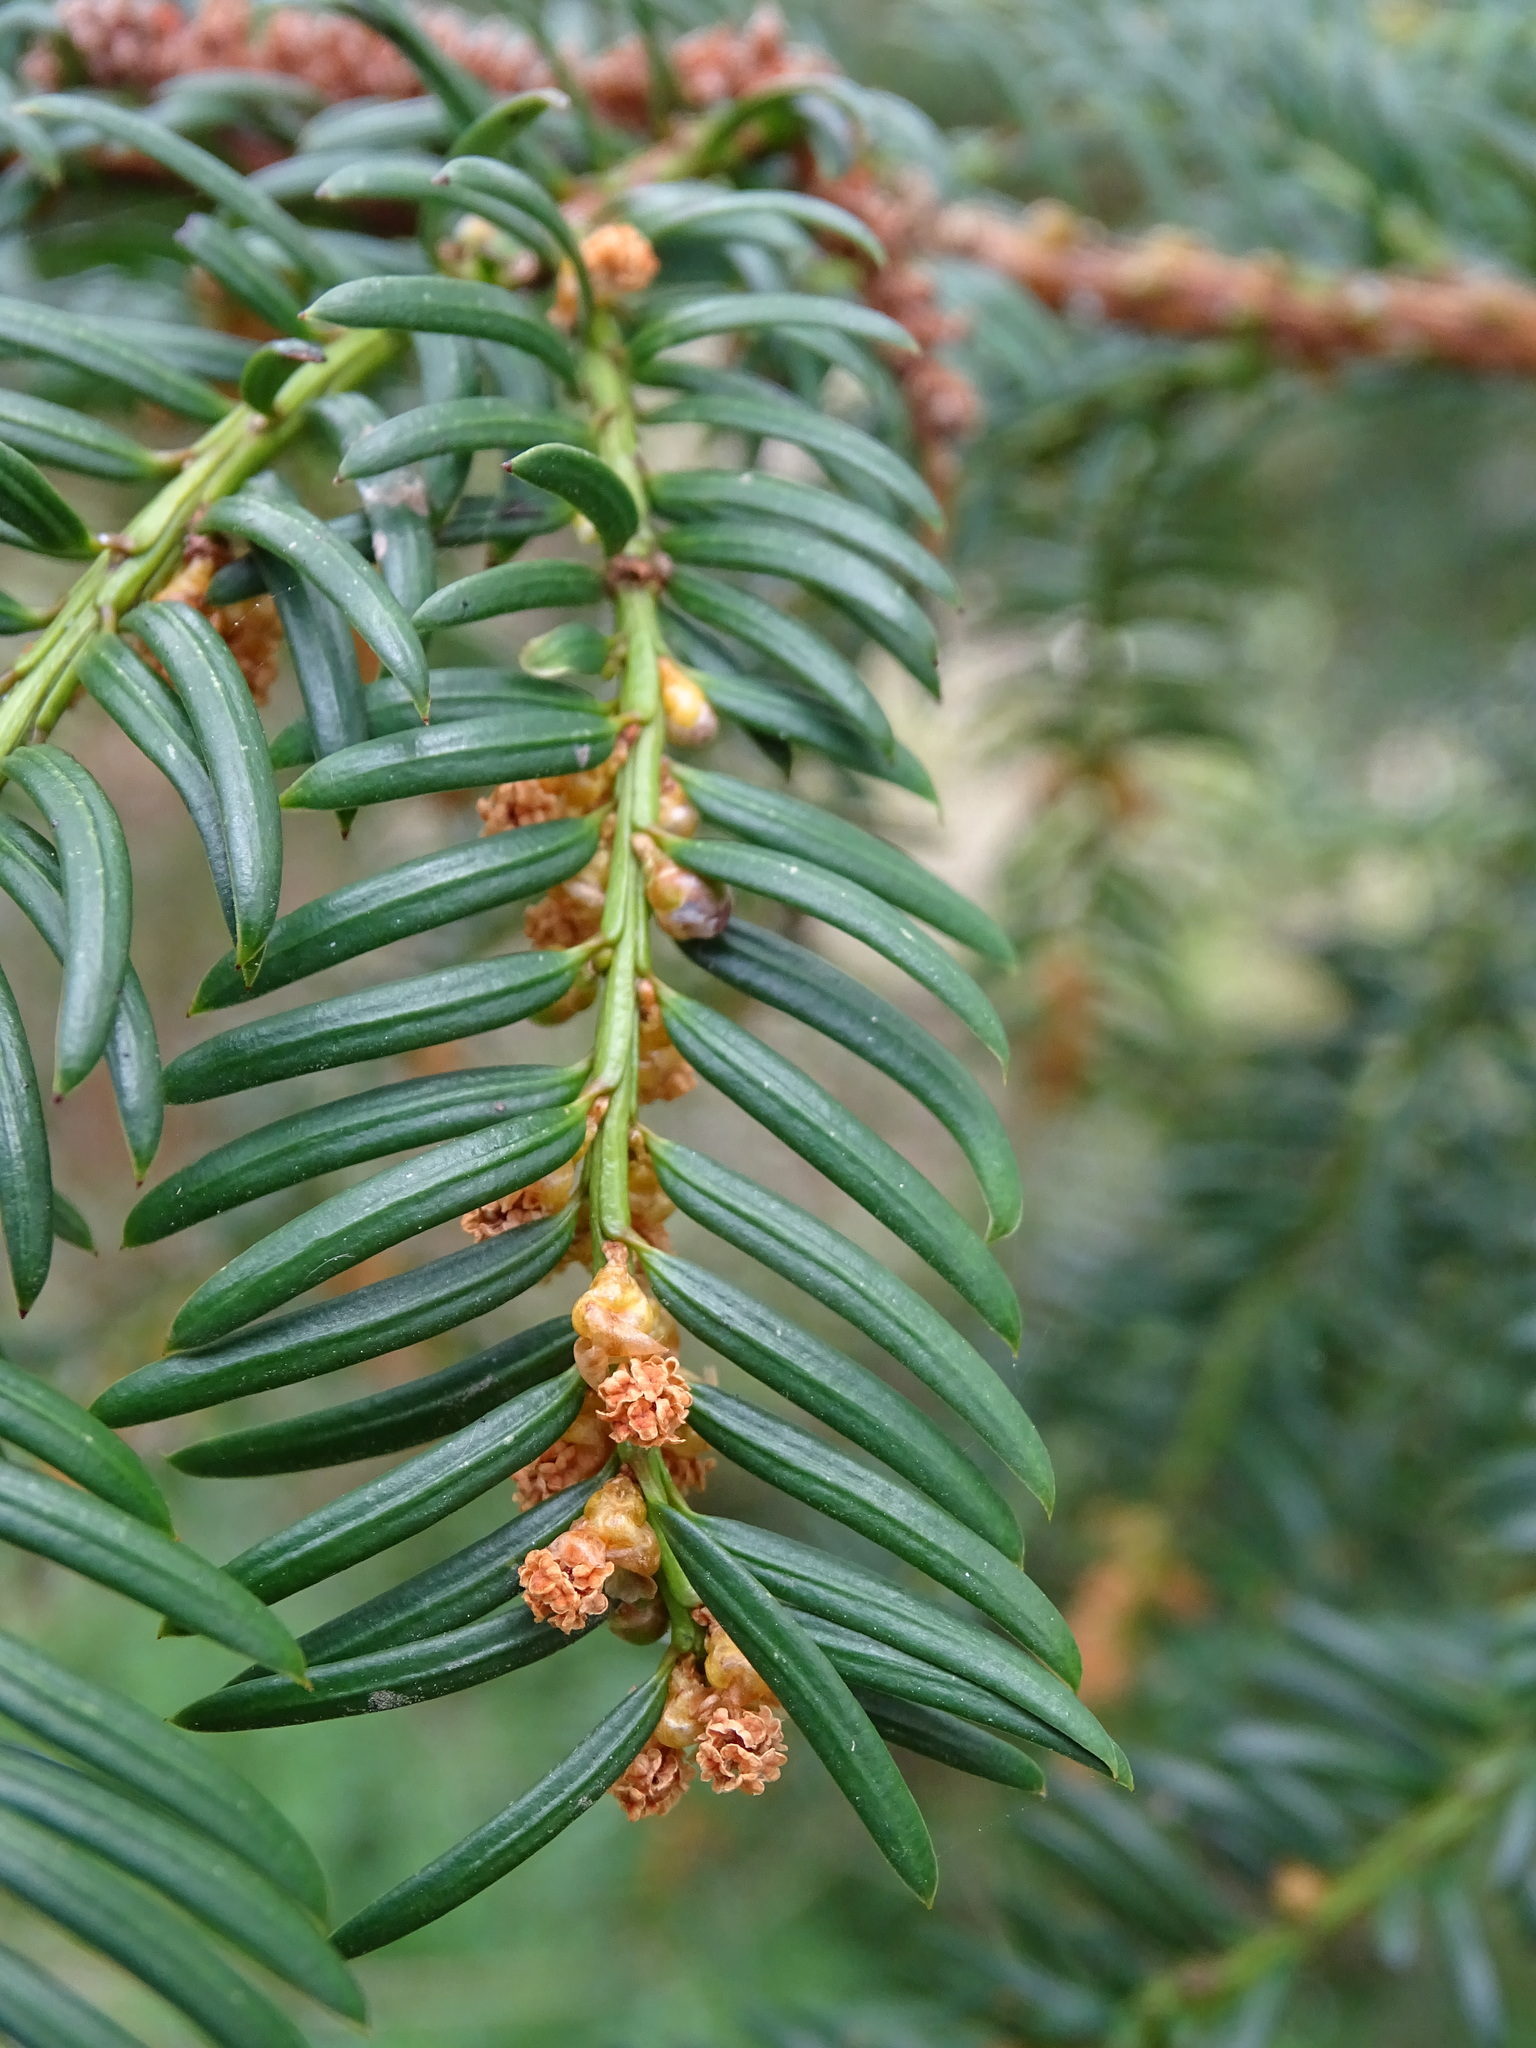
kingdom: Plantae
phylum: Tracheophyta
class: Pinopsida
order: Pinales
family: Taxaceae
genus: Taxus
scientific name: Taxus baccata
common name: Yew
